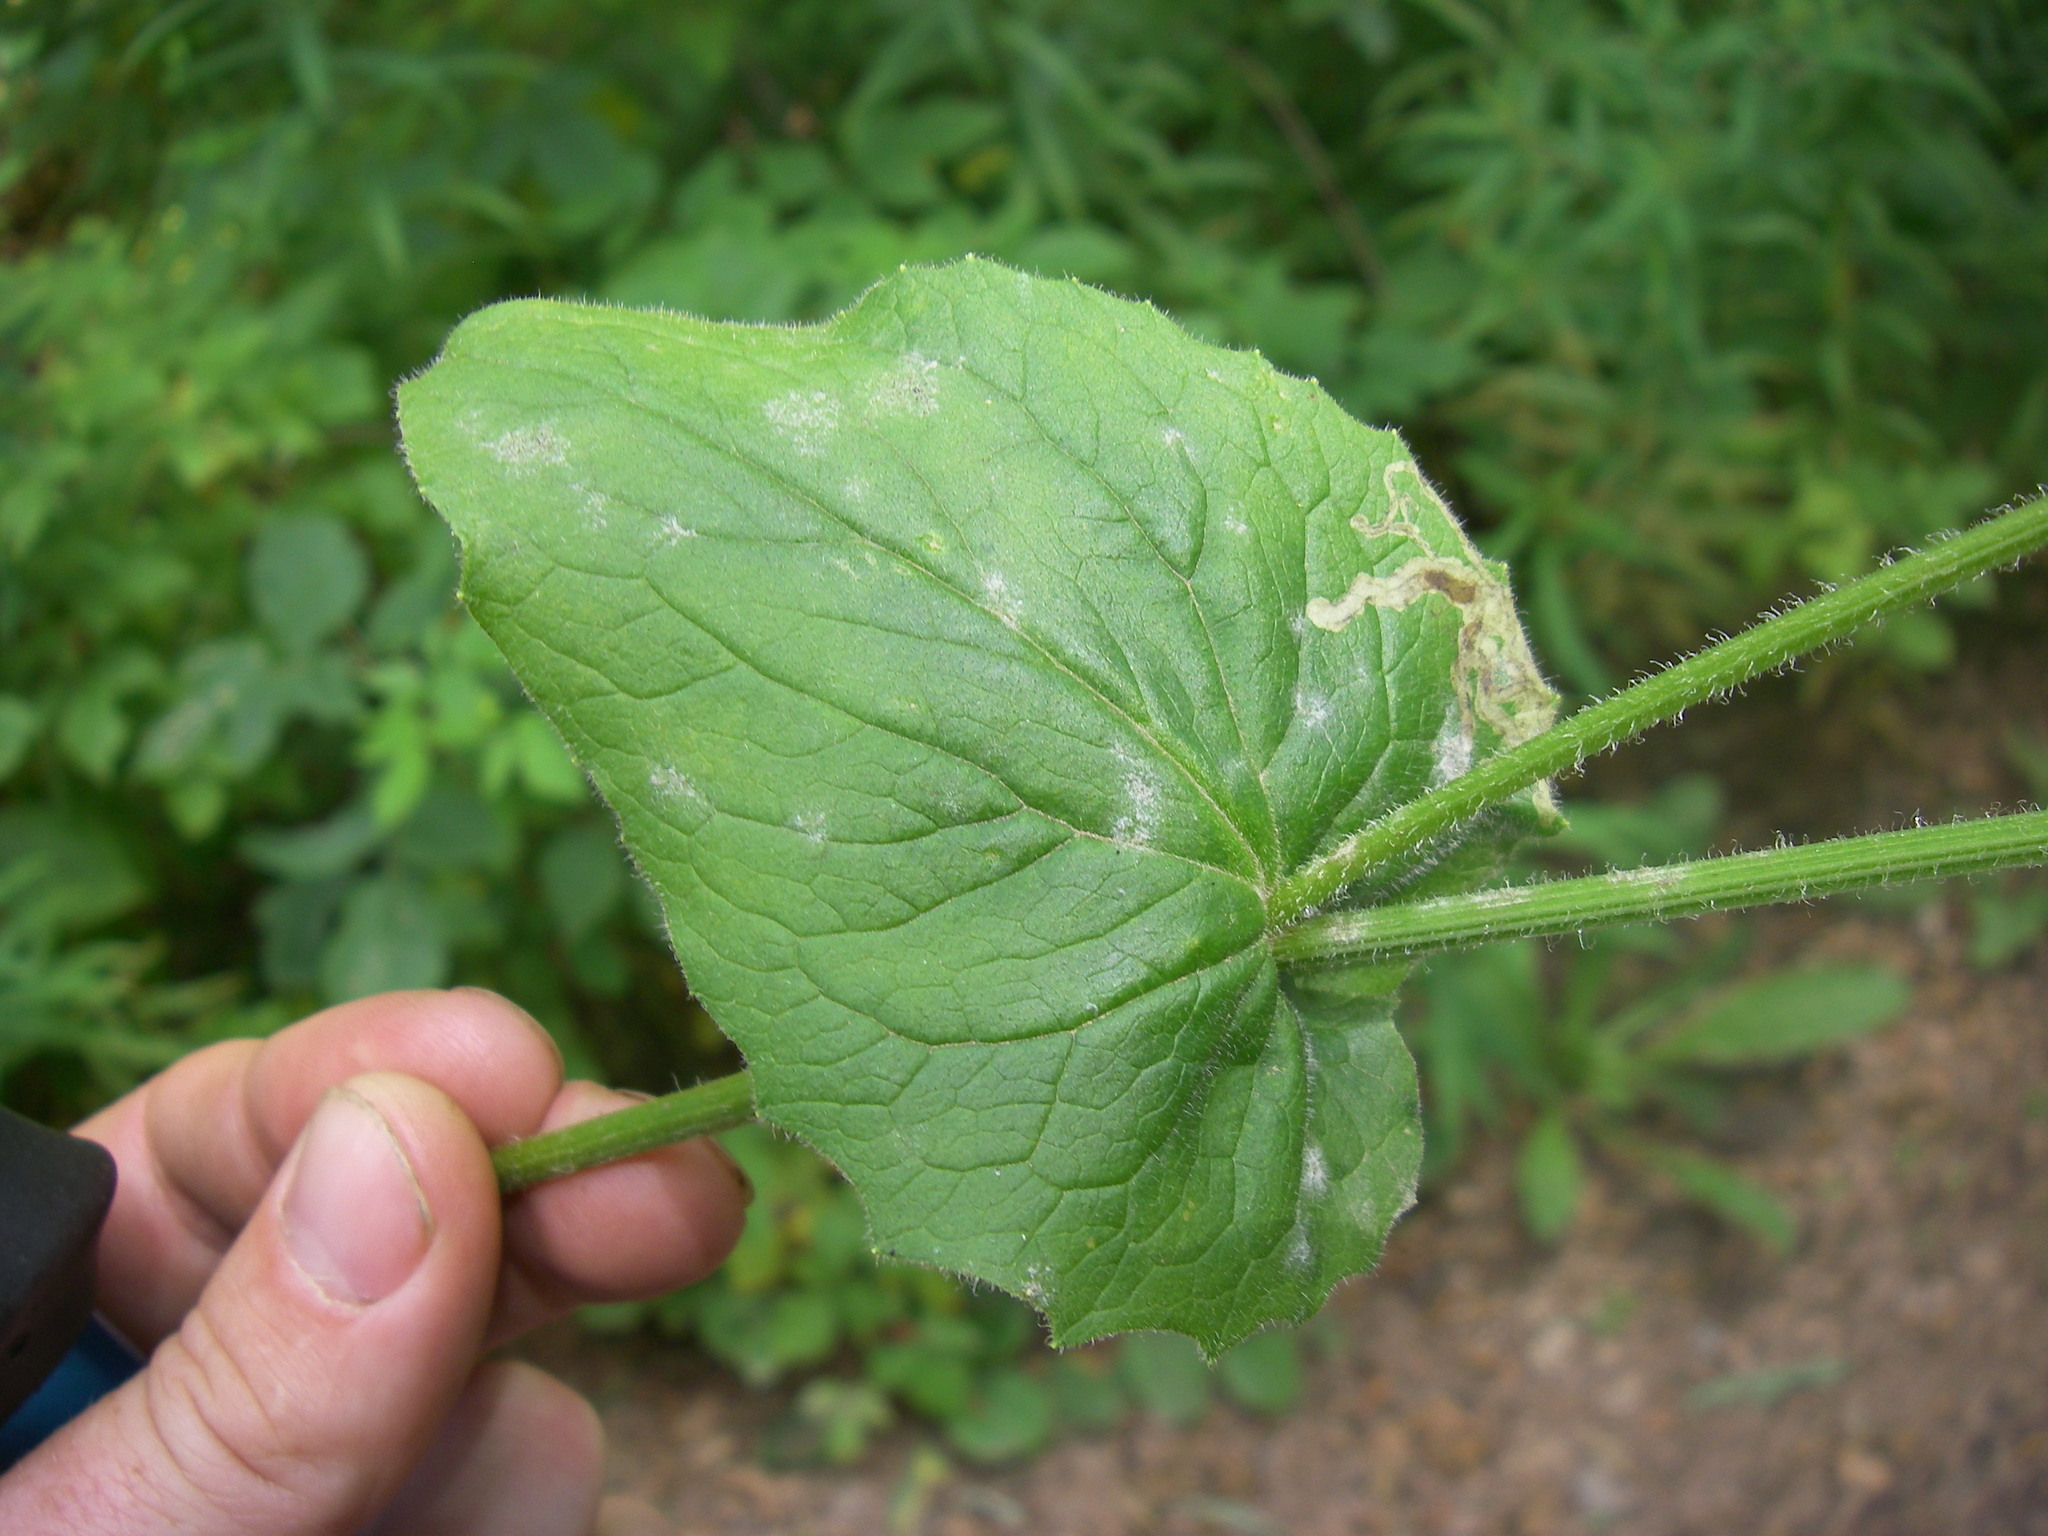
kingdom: Plantae
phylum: Tracheophyta
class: Magnoliopsida
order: Asterales
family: Asteraceae
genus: Doronicum
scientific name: Doronicum austriacum
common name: Austrian leopard's-bane
